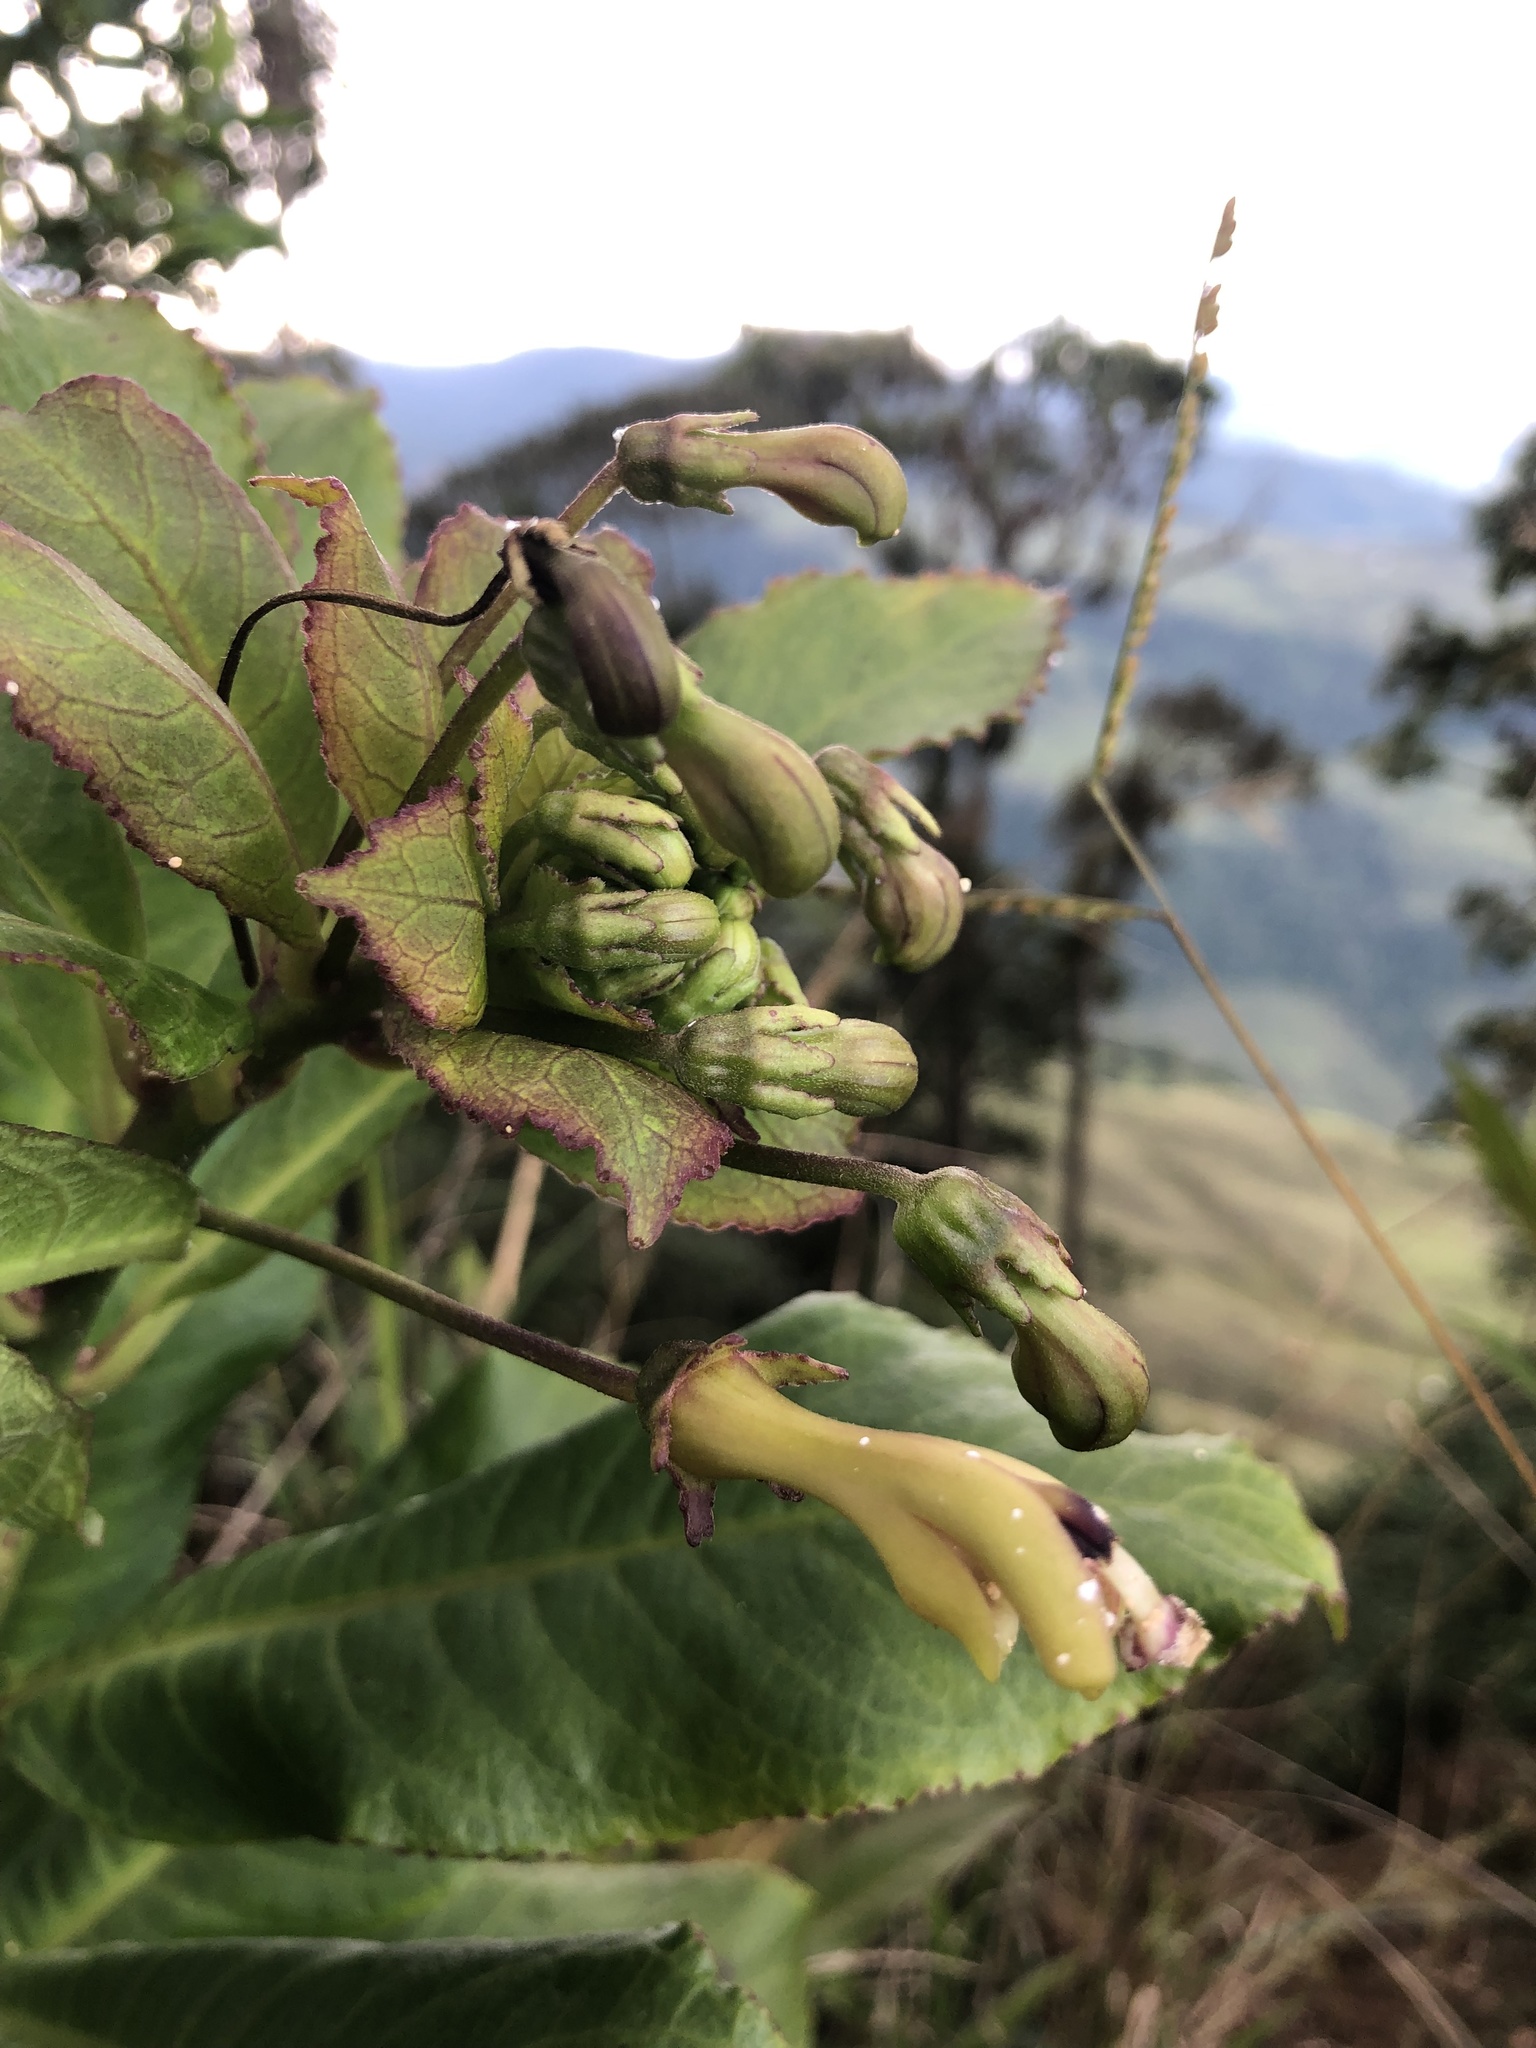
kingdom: Plantae
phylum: Tracheophyta
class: Magnoliopsida
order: Asterales
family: Campanulaceae
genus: Burmeistera
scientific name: Burmeistera variabilis
